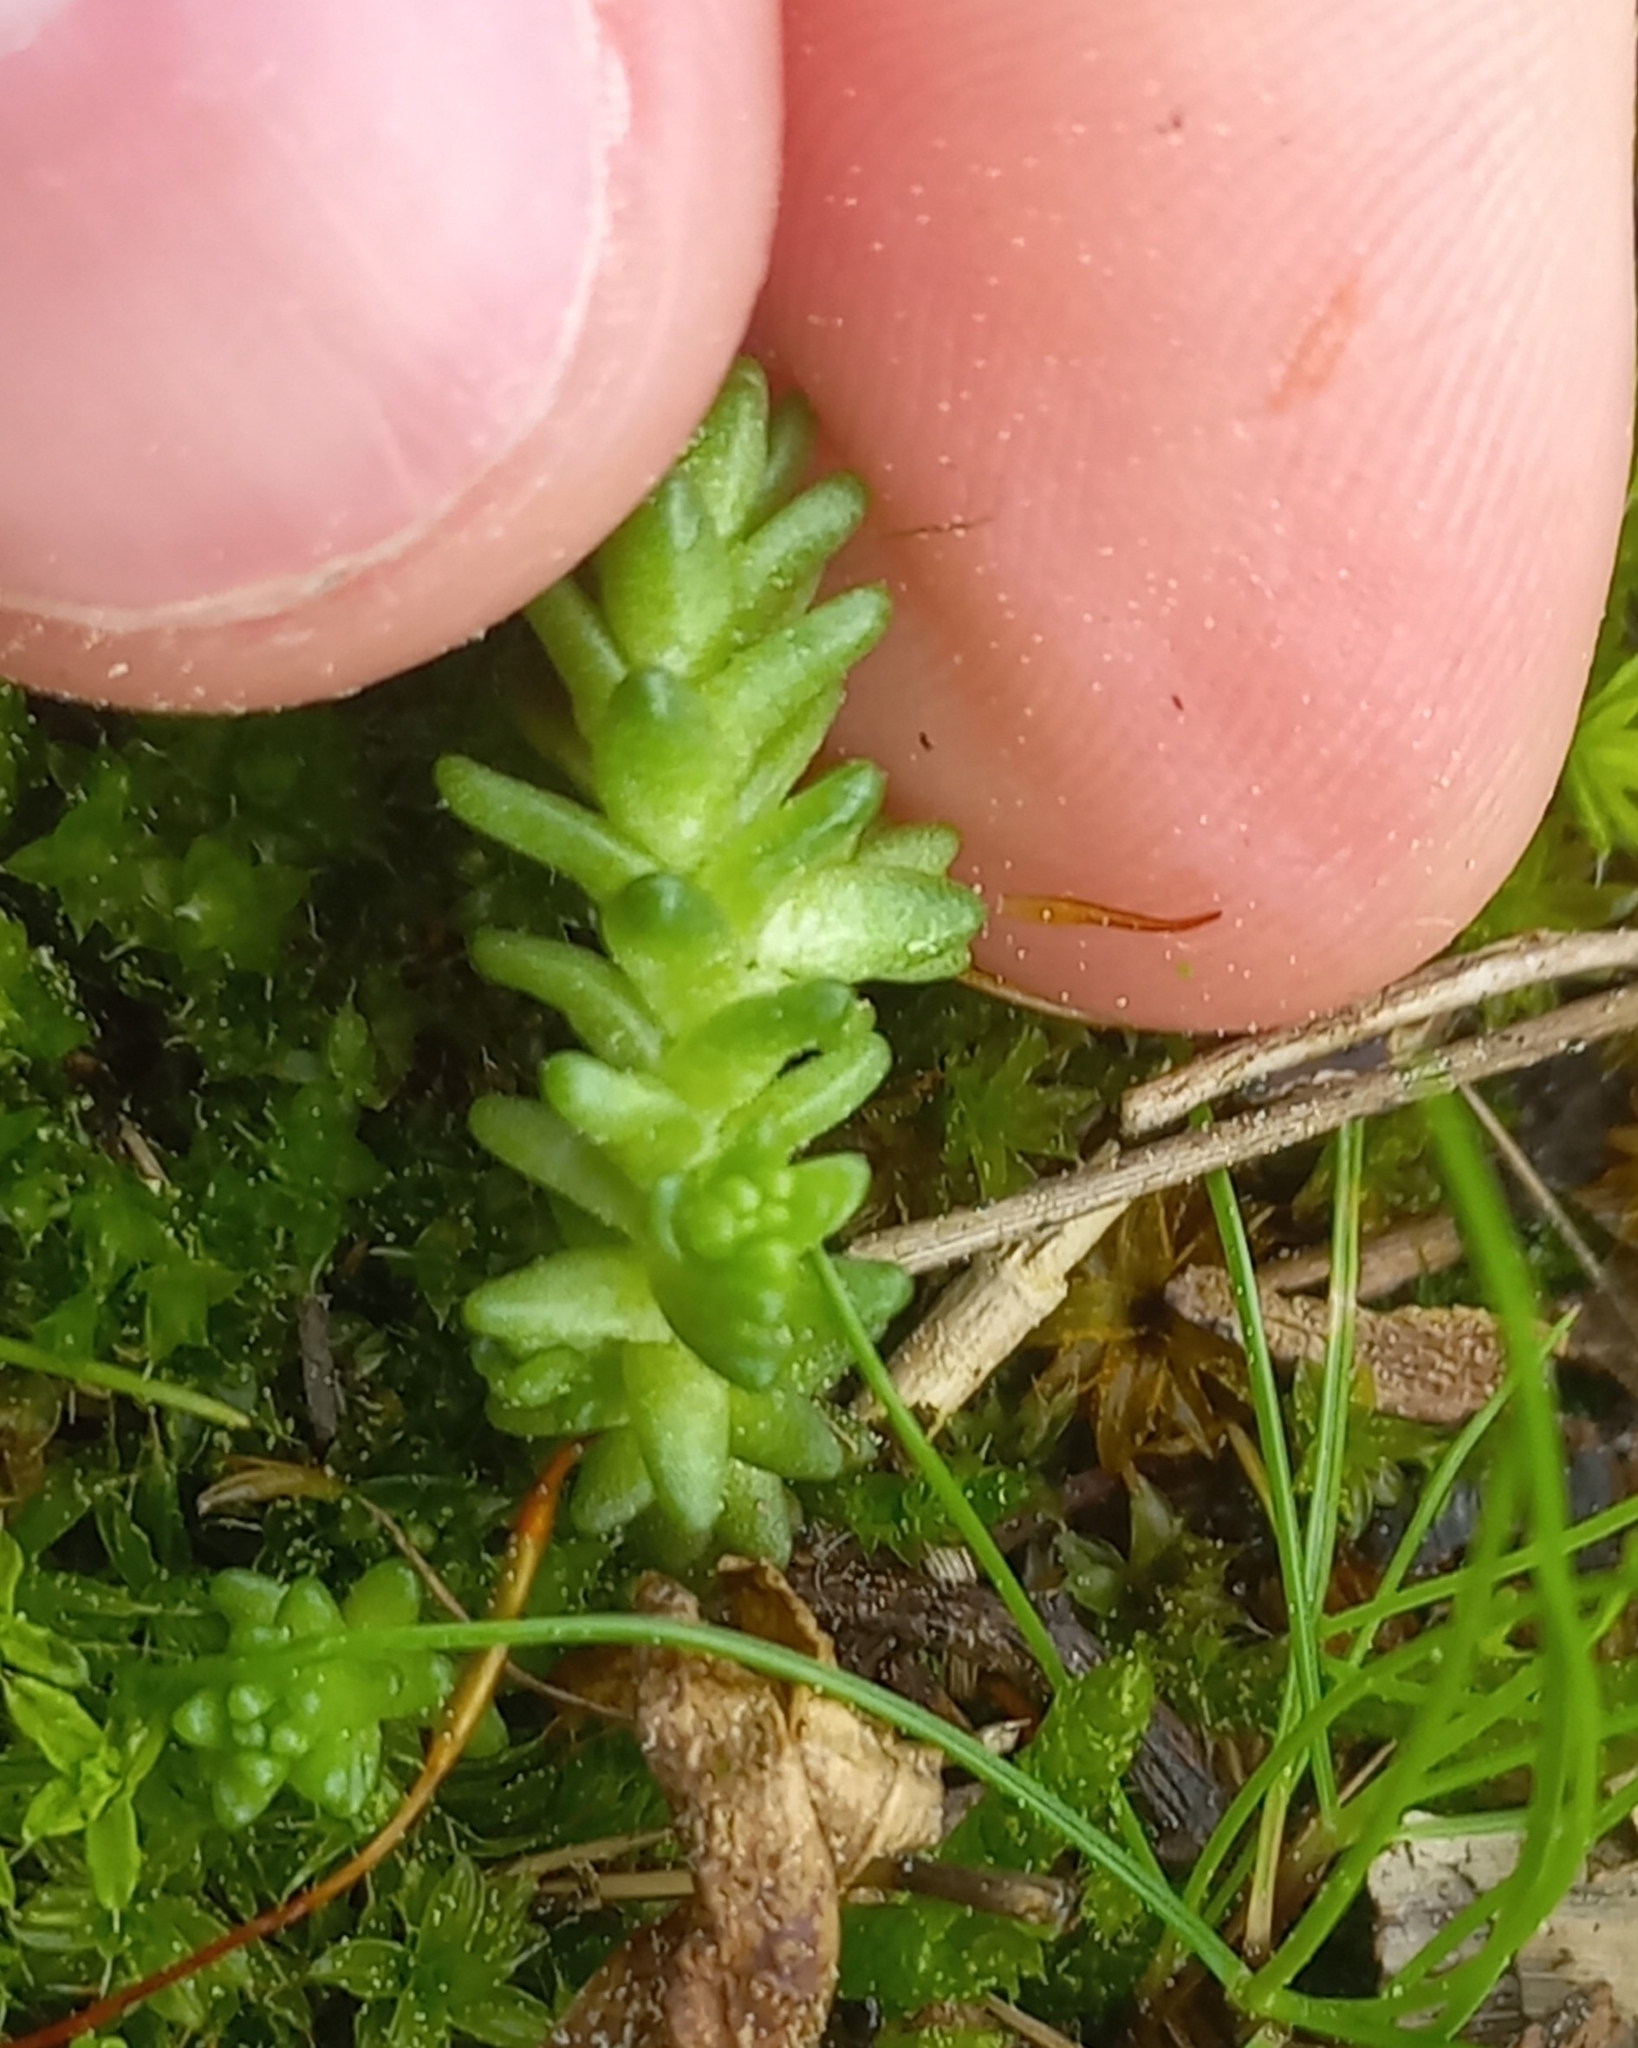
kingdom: Plantae
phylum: Tracheophyta
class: Magnoliopsida
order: Saxifragales
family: Crassulaceae
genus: Sedum
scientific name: Sedum acre
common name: Biting stonecrop
